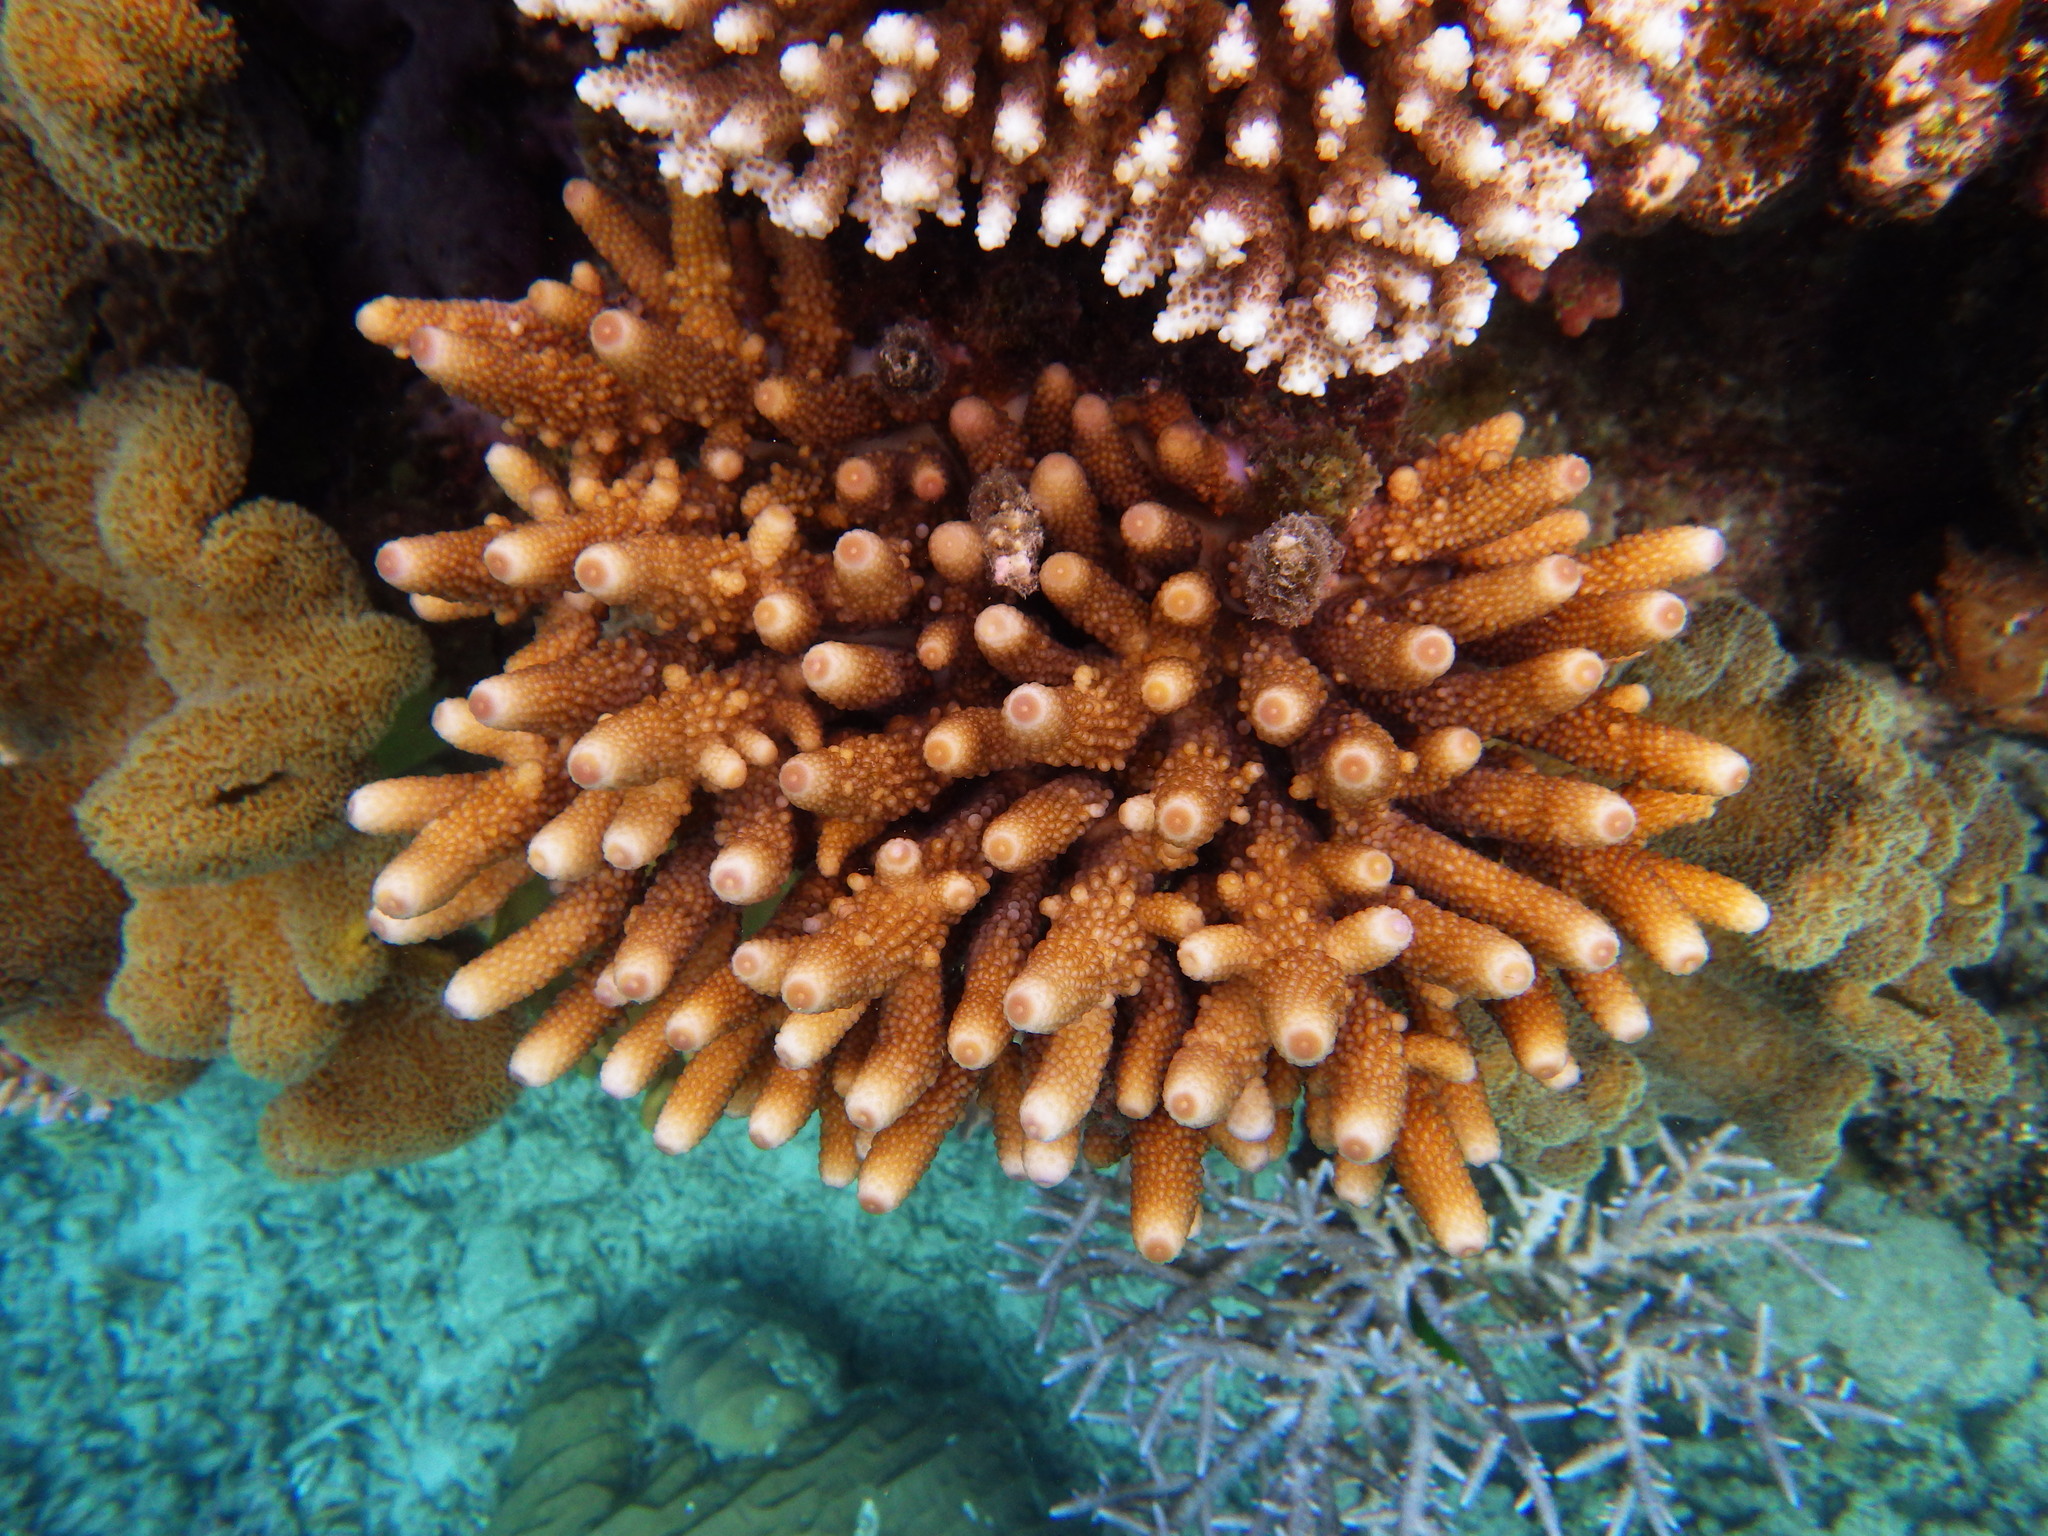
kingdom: Animalia
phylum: Cnidaria
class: Anthozoa
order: Scleractinia
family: Acroporidae
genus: Acropora
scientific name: Acropora humilis
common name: Finger coral
